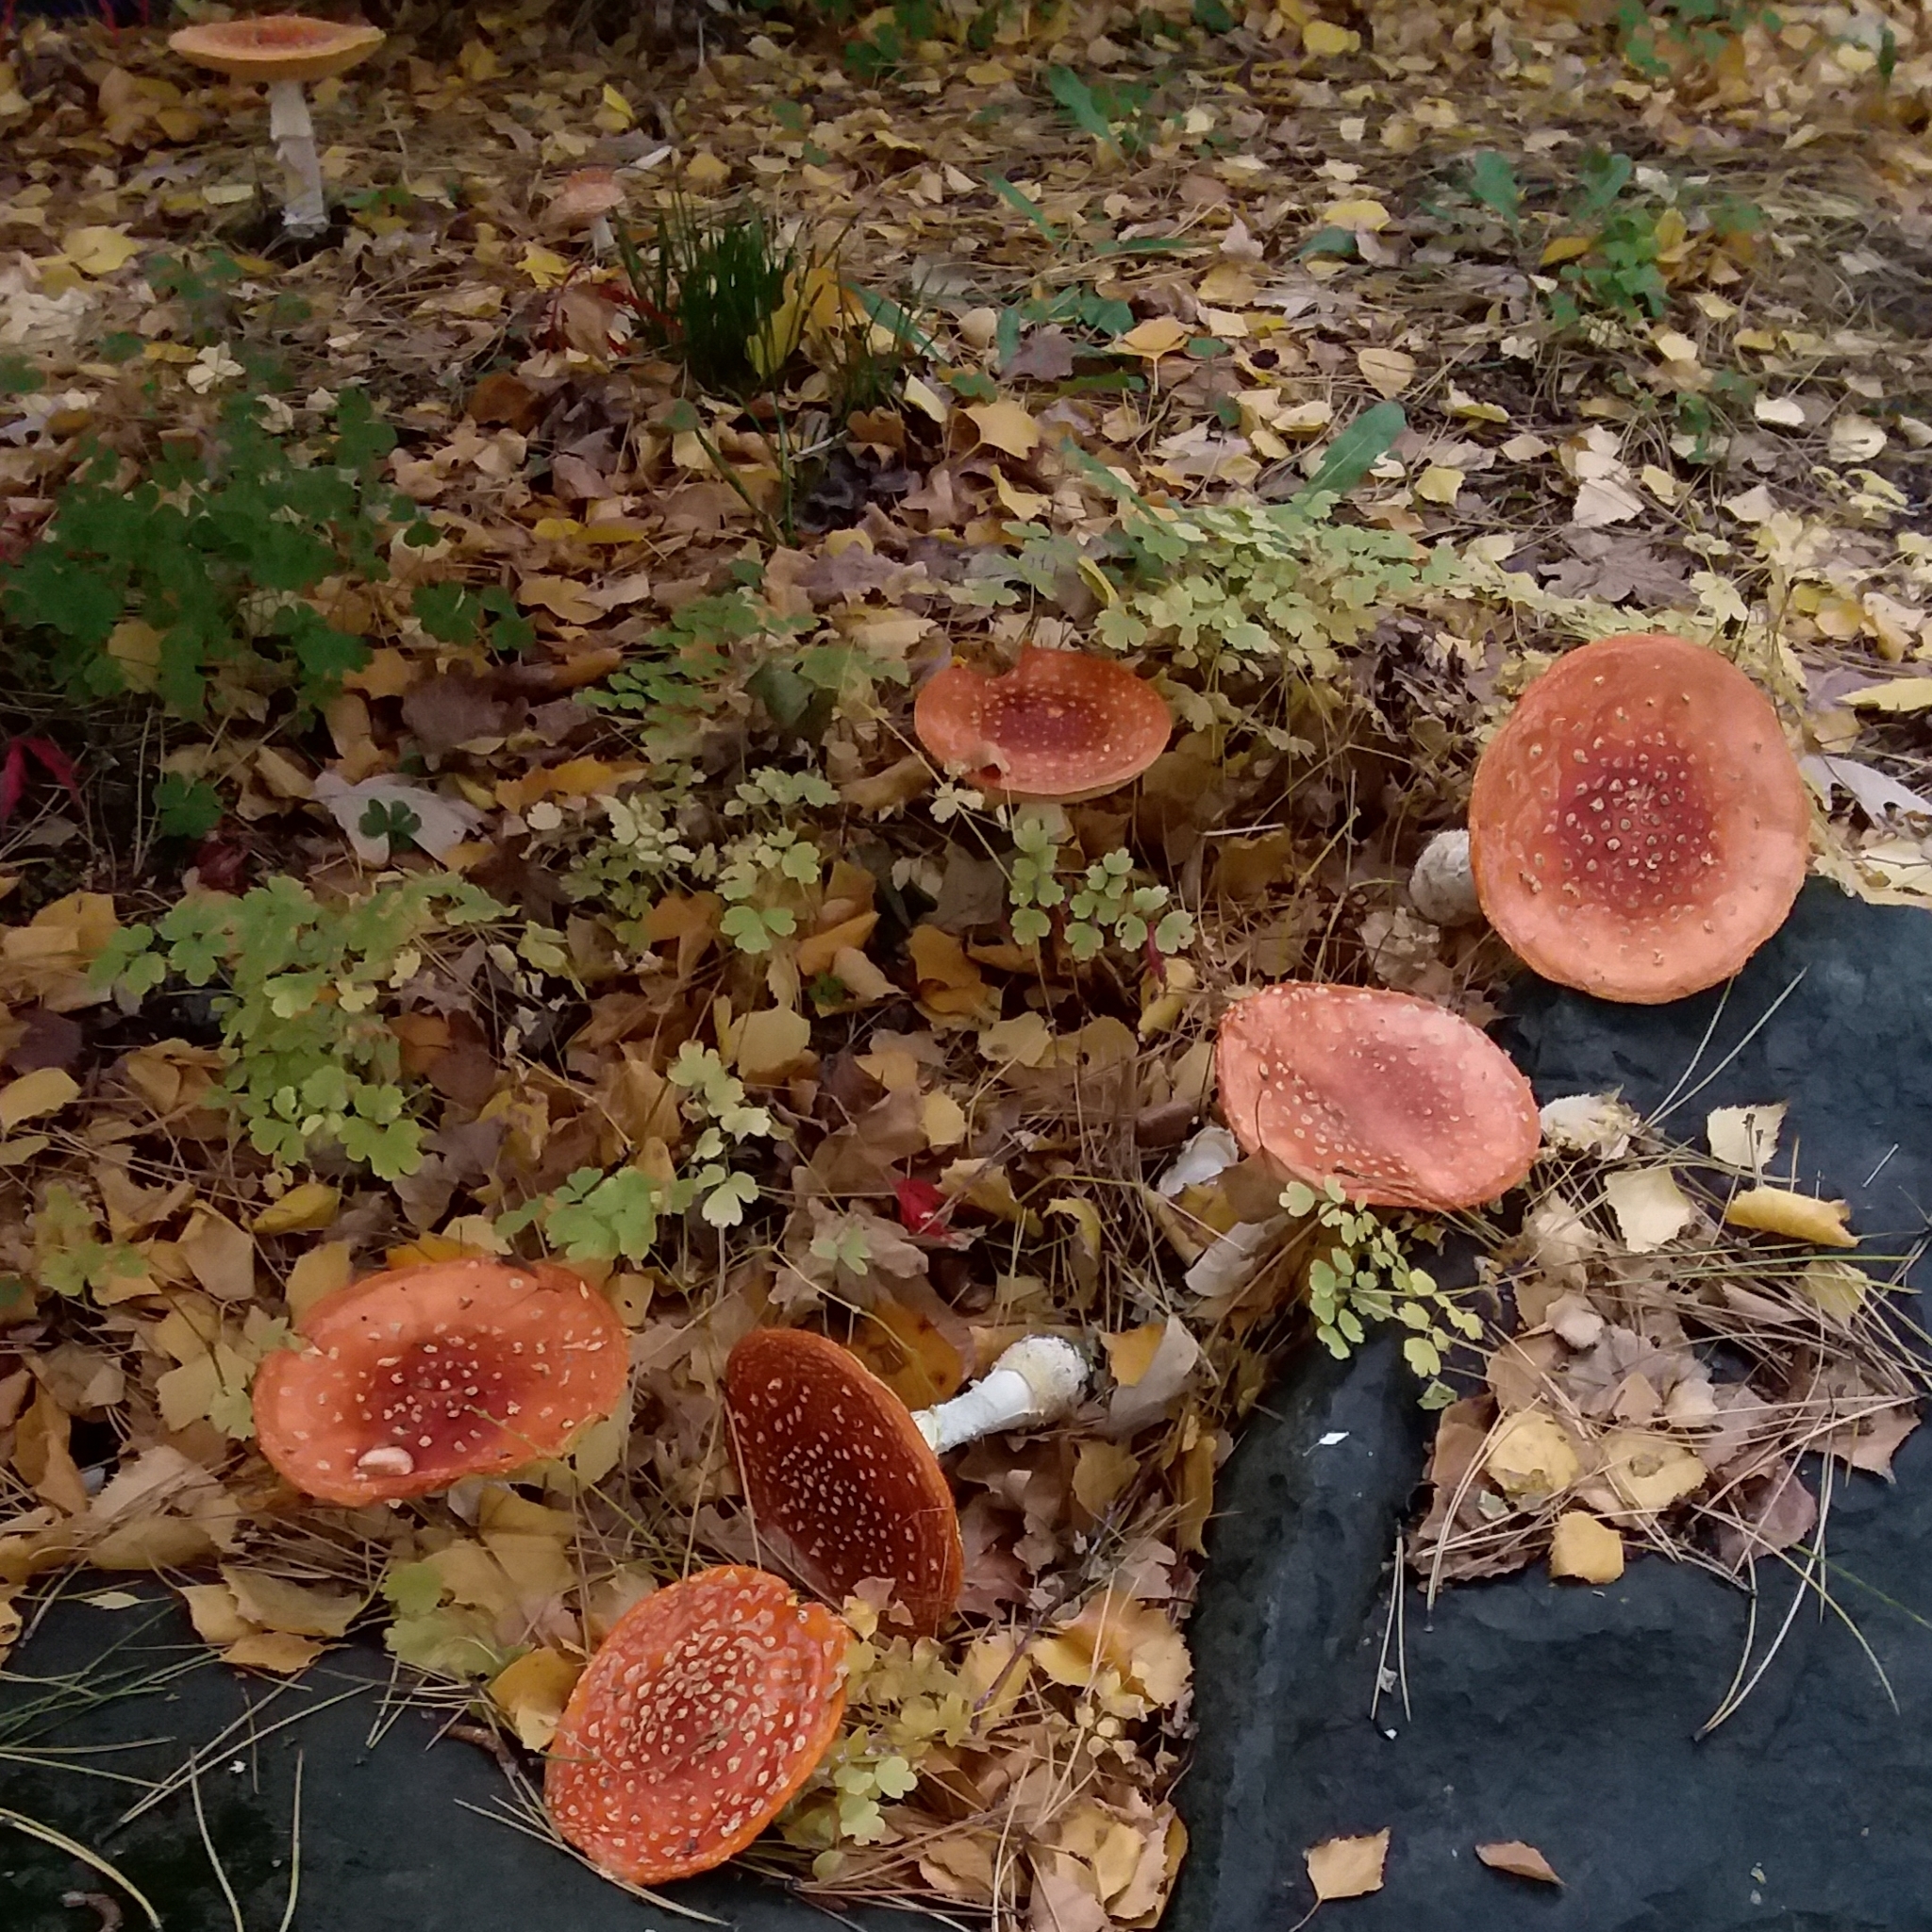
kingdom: Fungi
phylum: Basidiomycota
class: Agaricomycetes
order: Agaricales
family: Amanitaceae
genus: Amanita
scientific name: Amanita muscaria
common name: Fly agaric
